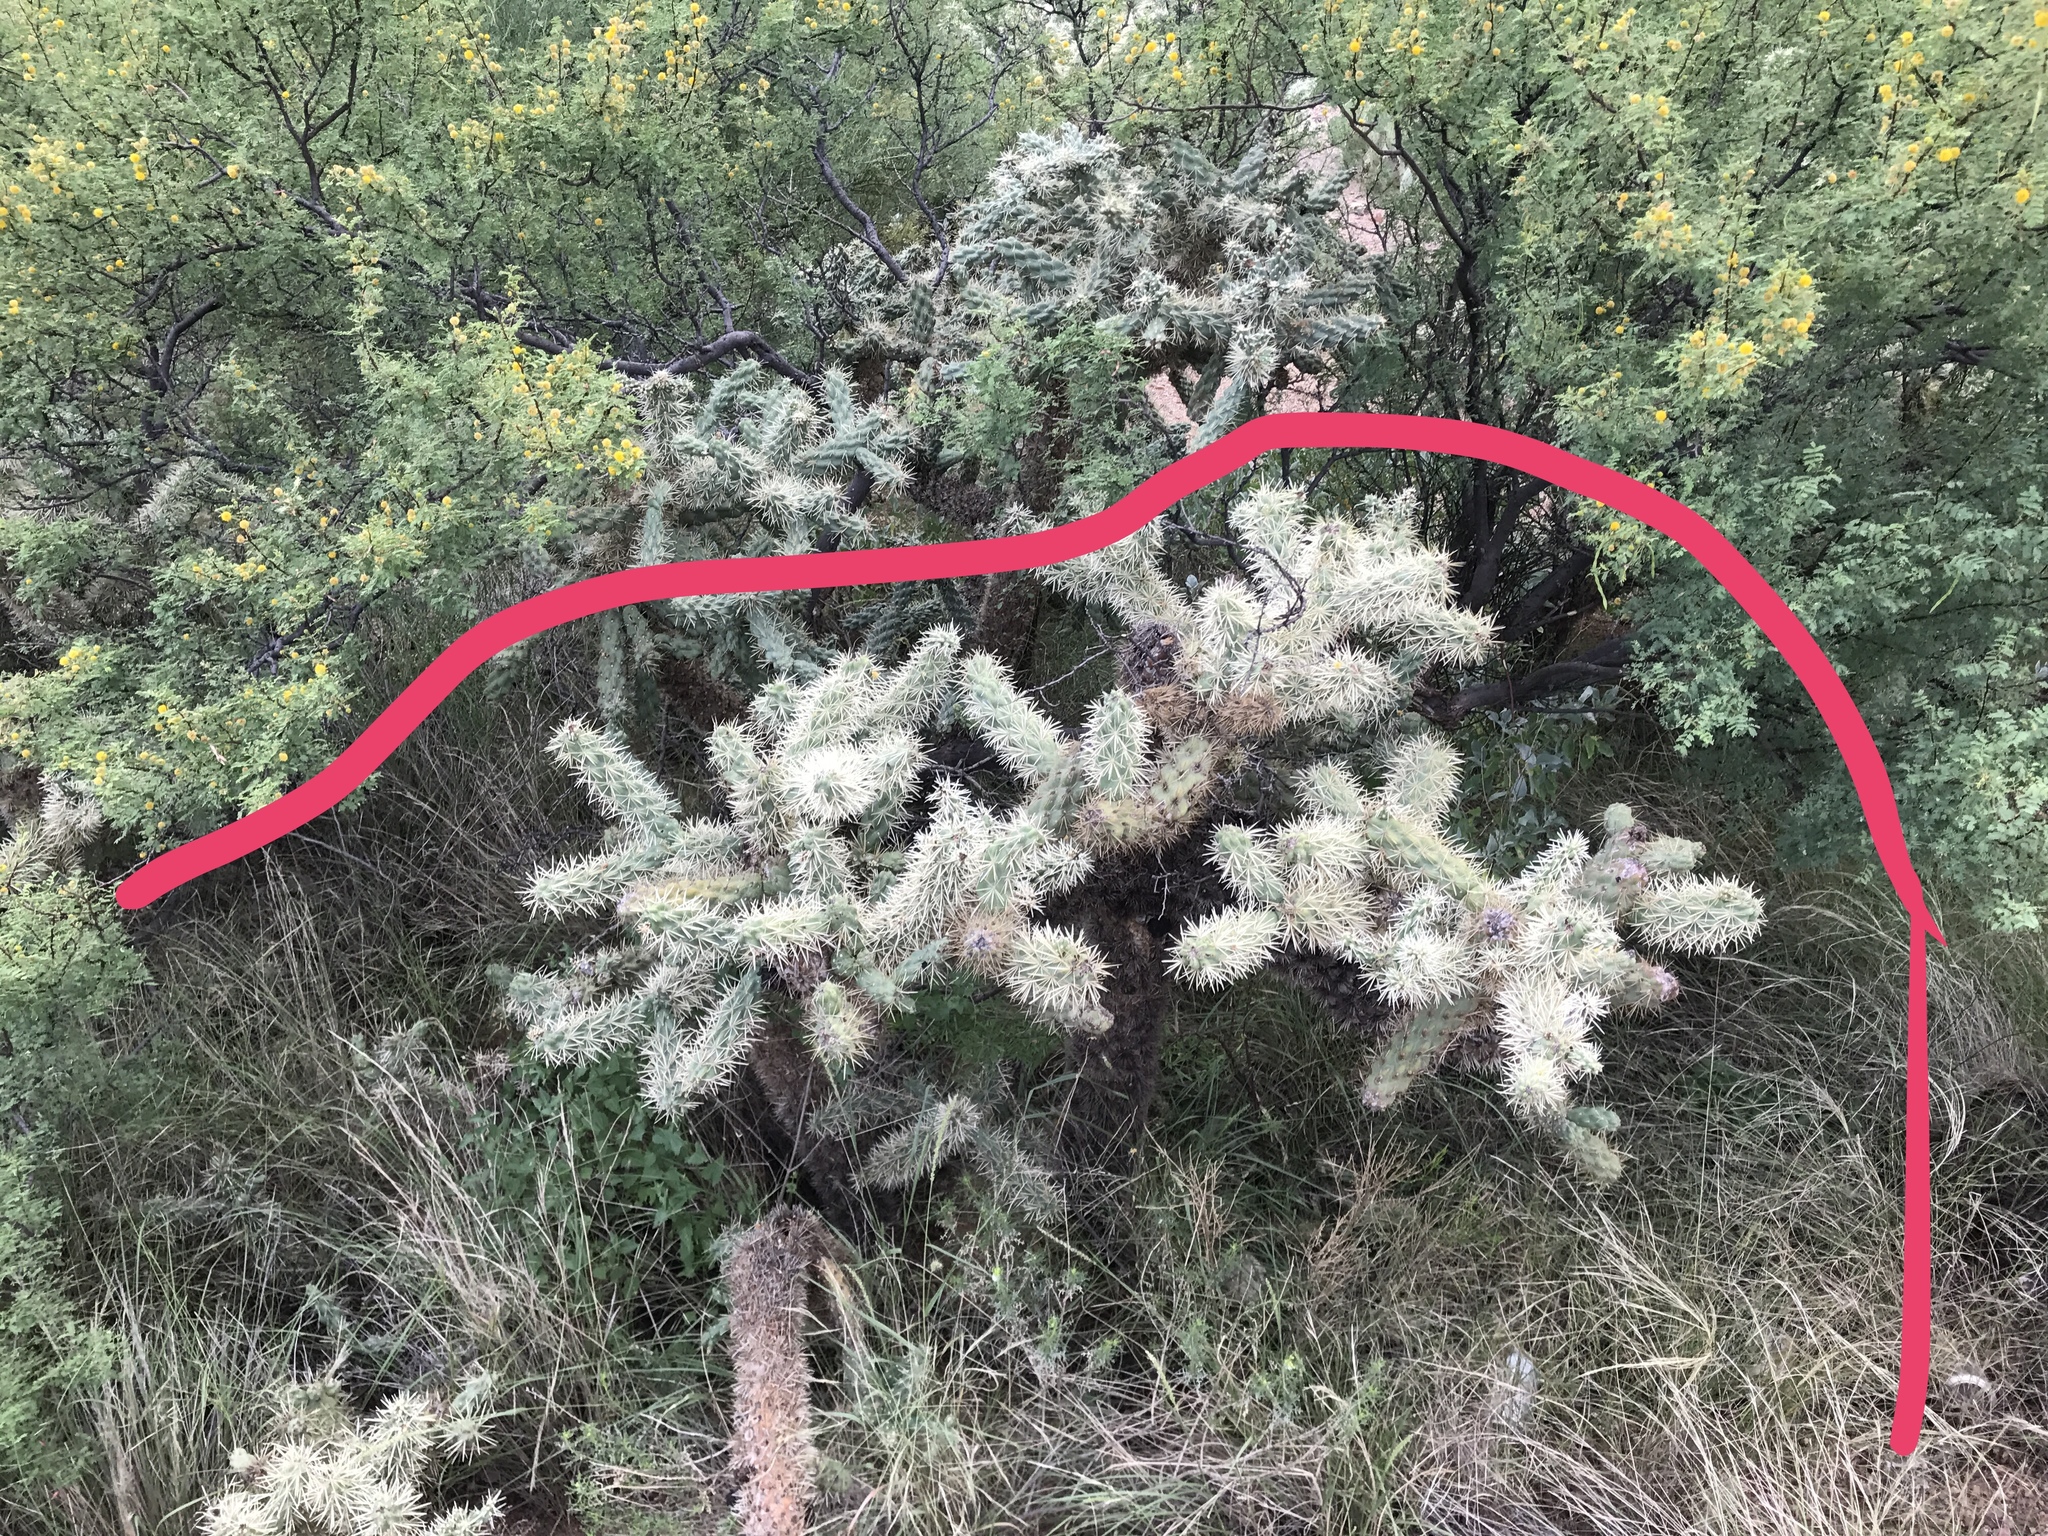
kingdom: Plantae
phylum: Tracheophyta
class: Magnoliopsida
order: Caryophyllales
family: Cactaceae
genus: Cylindropuntia
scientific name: Cylindropuntia fulgida
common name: Jumping cholla
